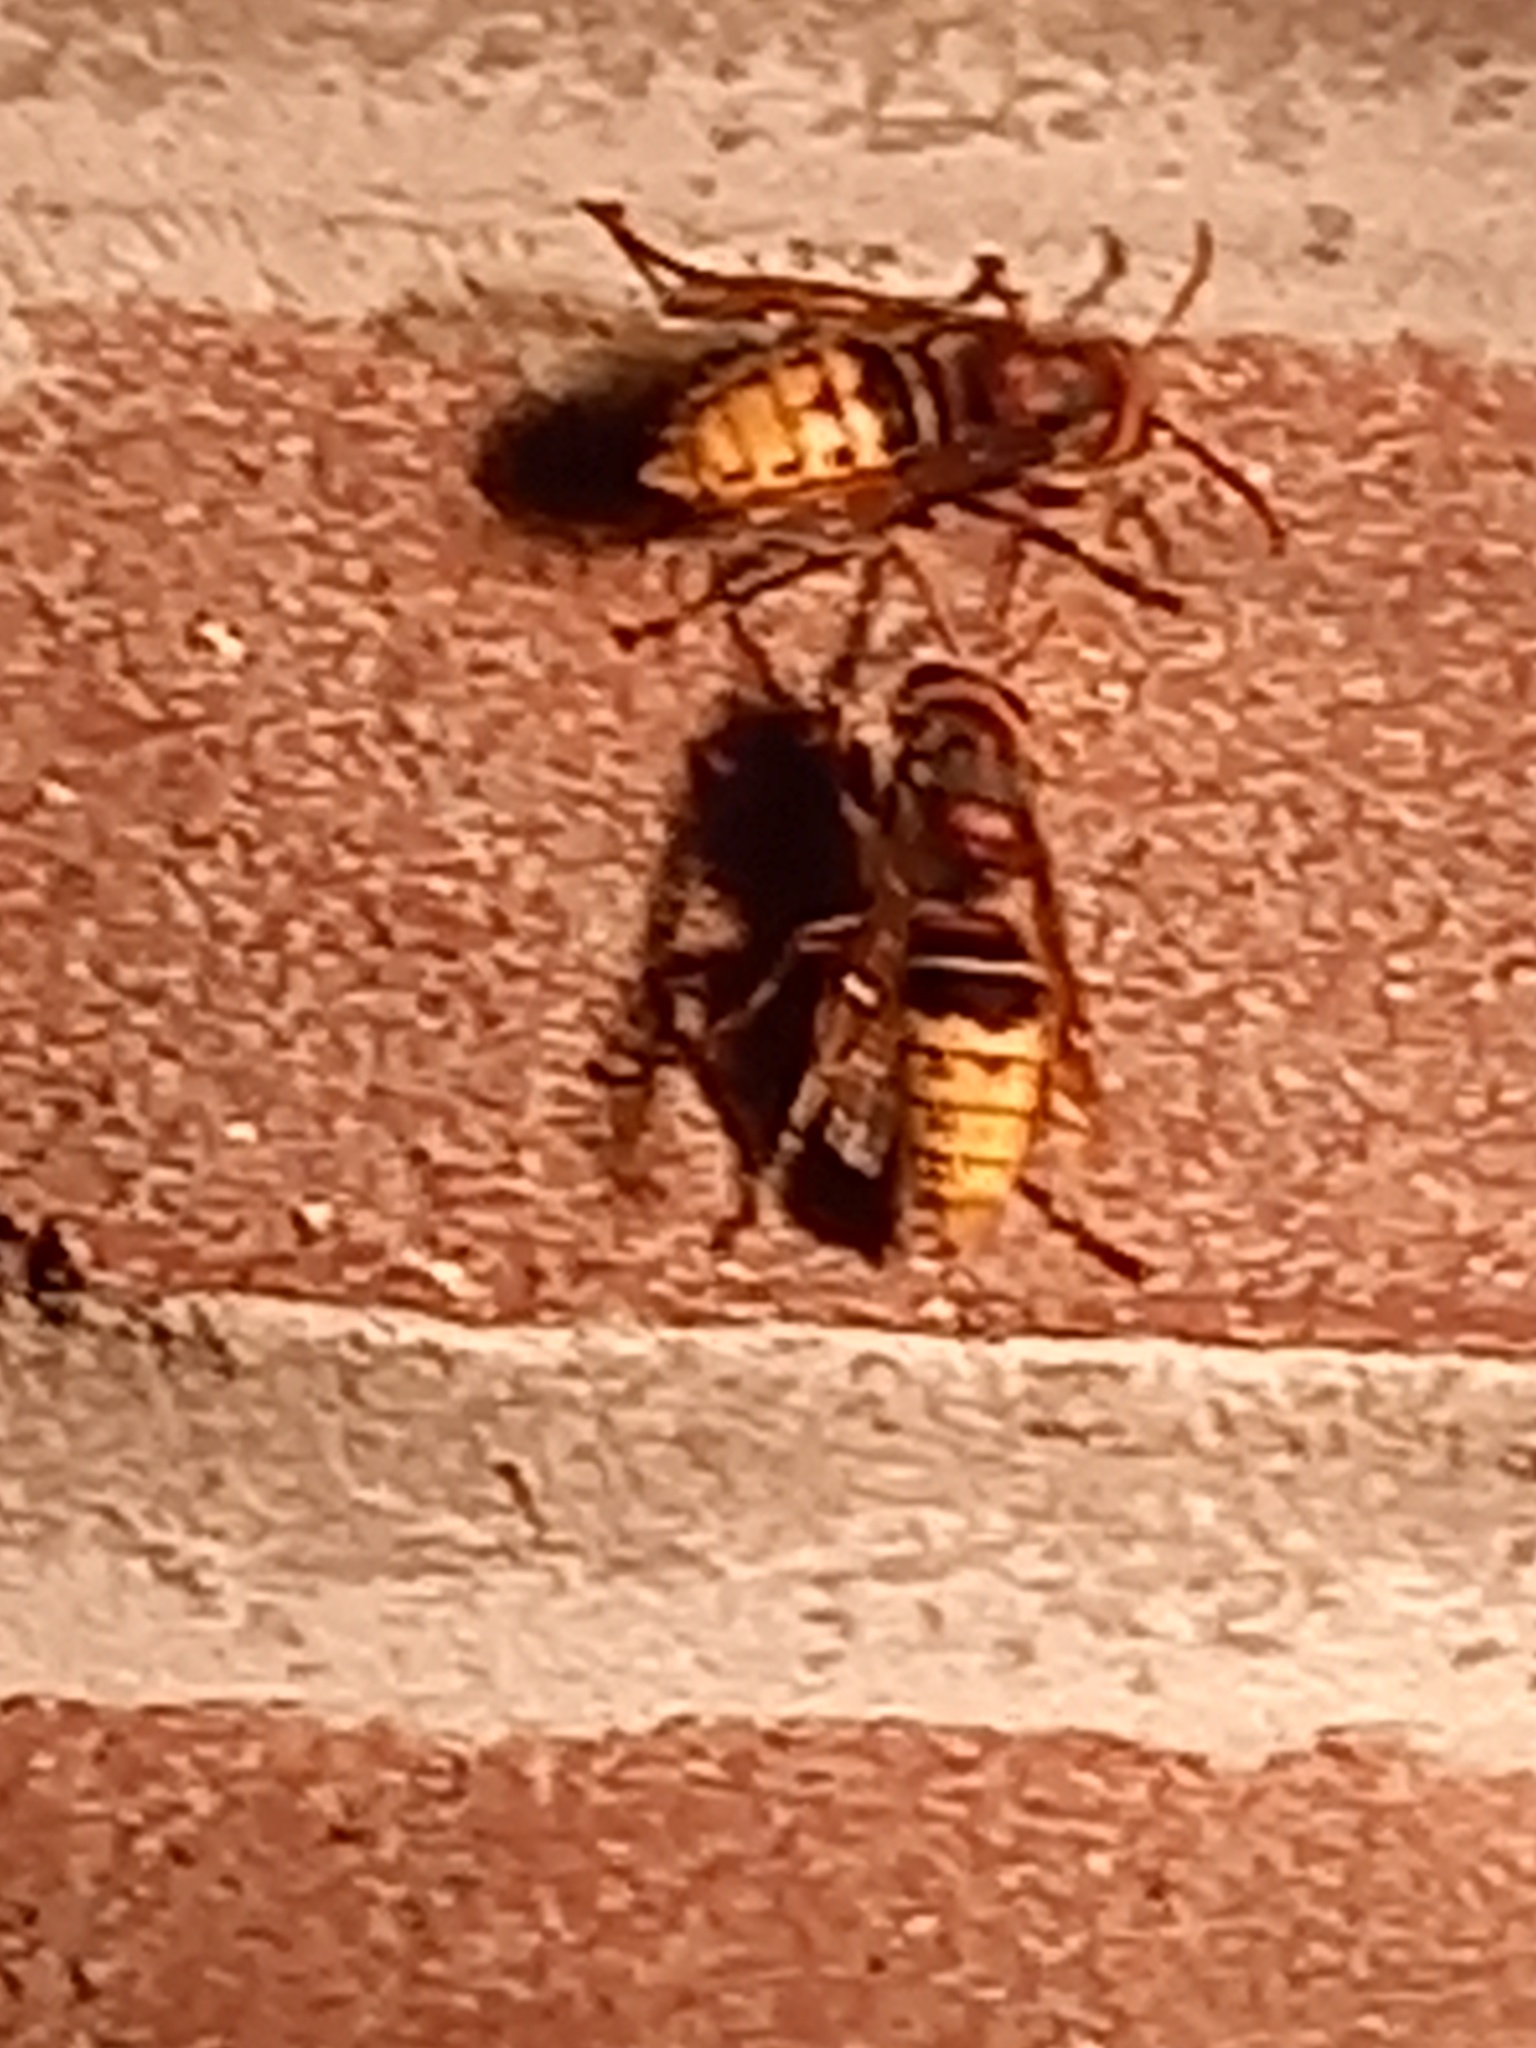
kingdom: Animalia
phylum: Arthropoda
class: Insecta
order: Hymenoptera
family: Vespidae
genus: Vespa
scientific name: Vespa crabro
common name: Hornet
